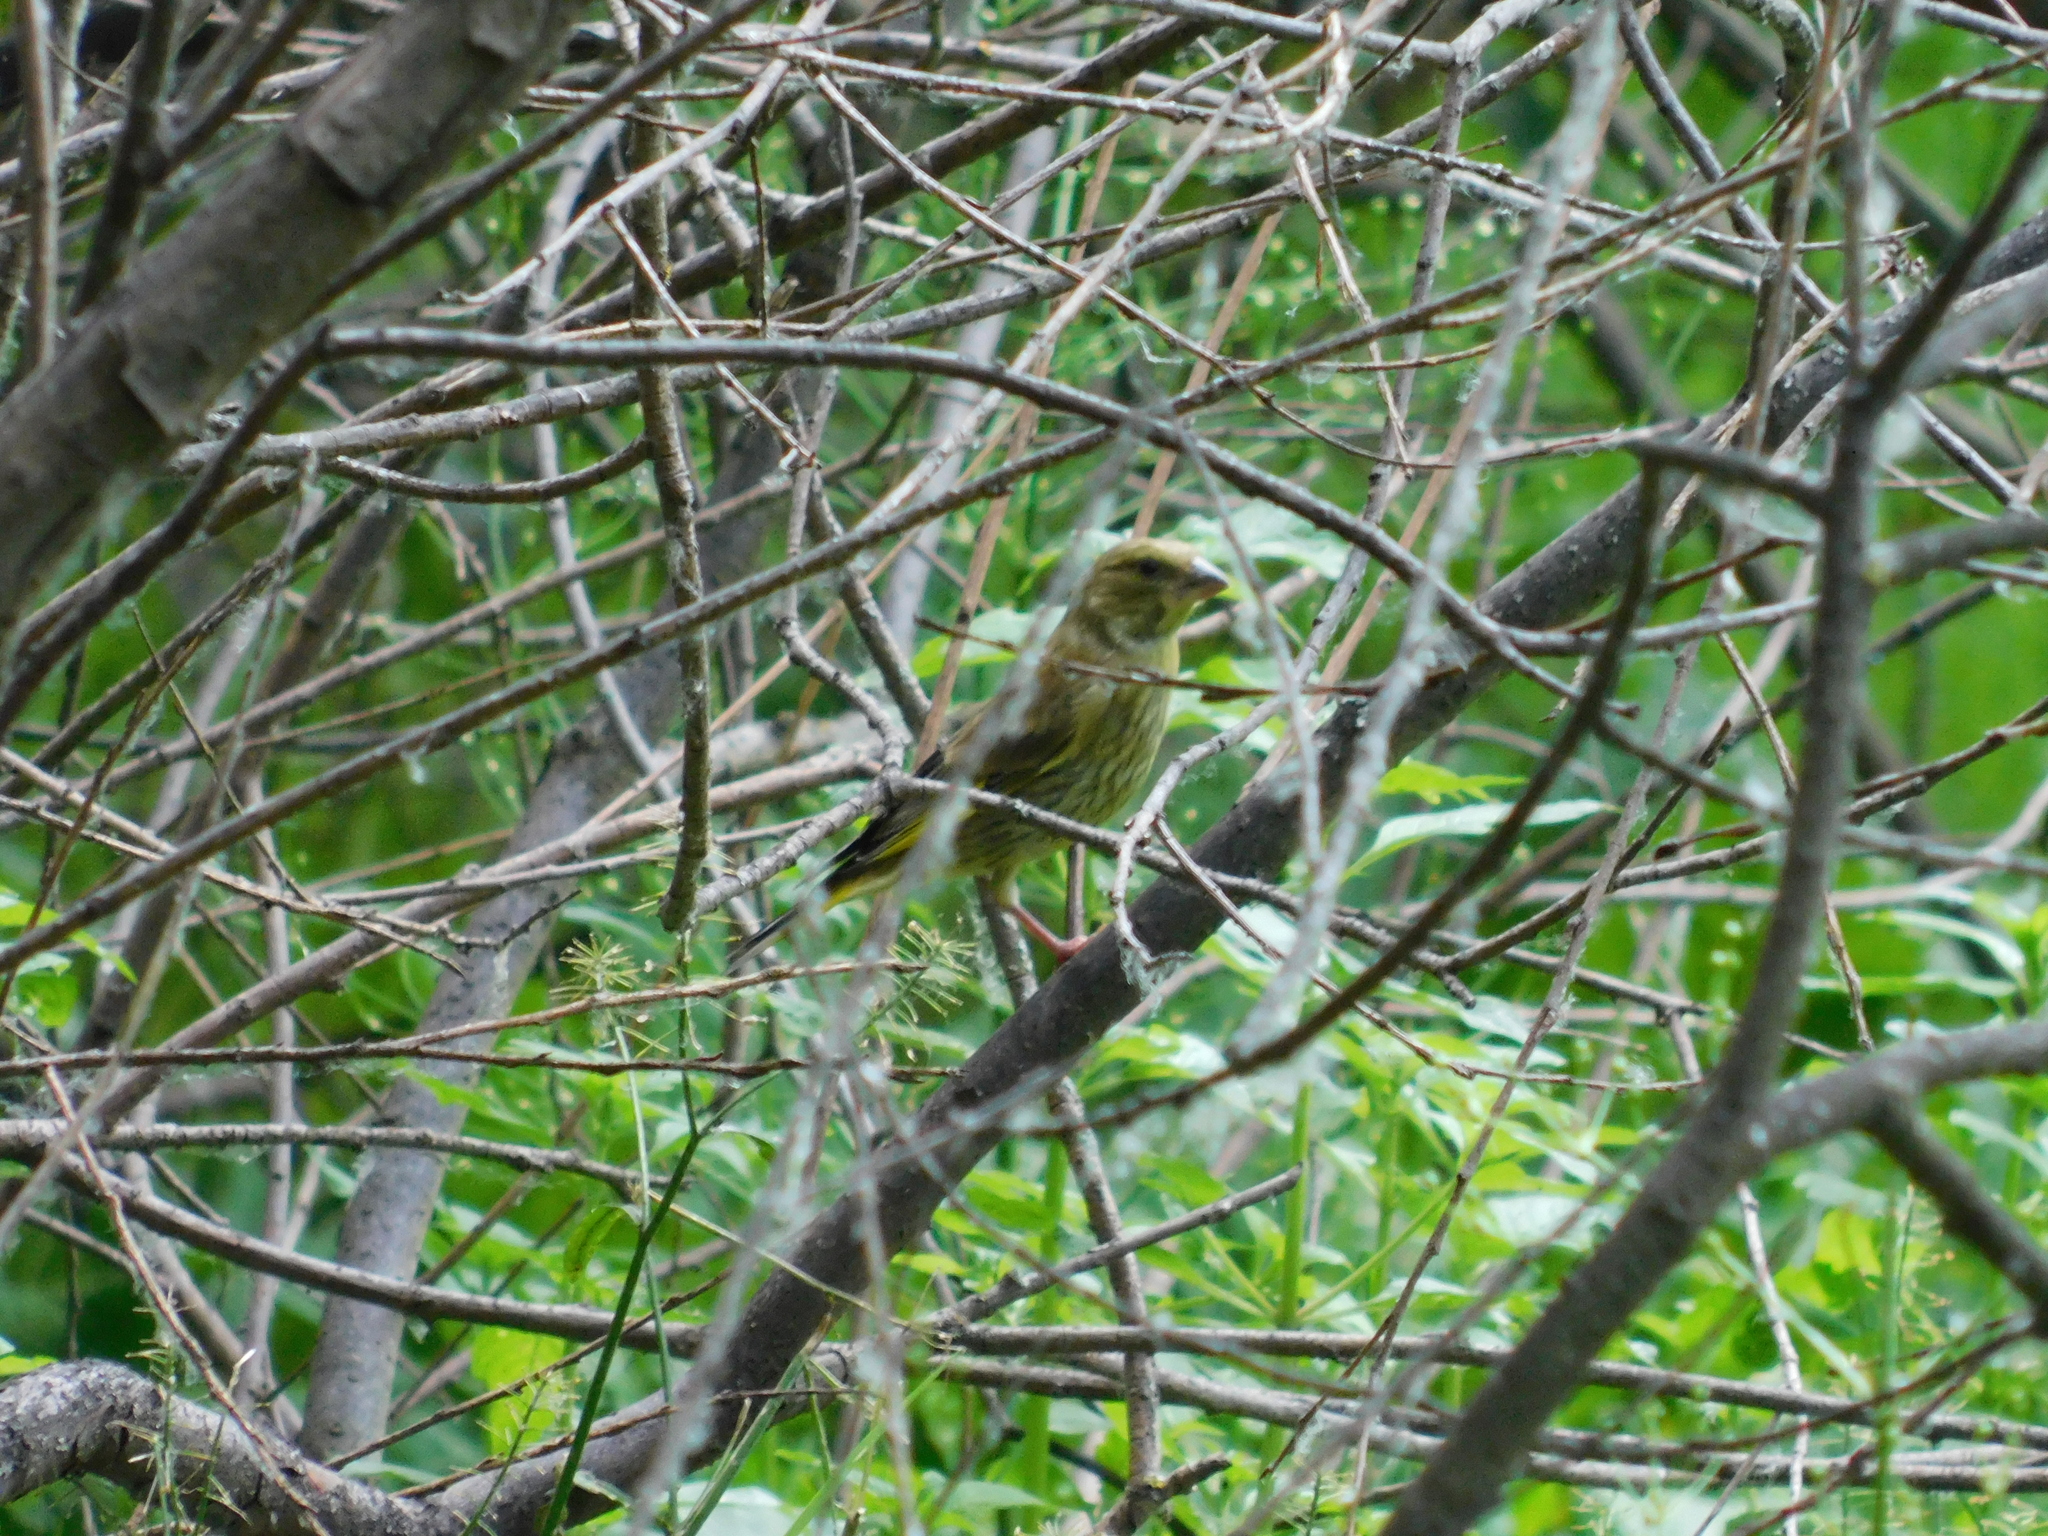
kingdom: Plantae
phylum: Tracheophyta
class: Liliopsida
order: Poales
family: Poaceae
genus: Chloris
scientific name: Chloris chloris
